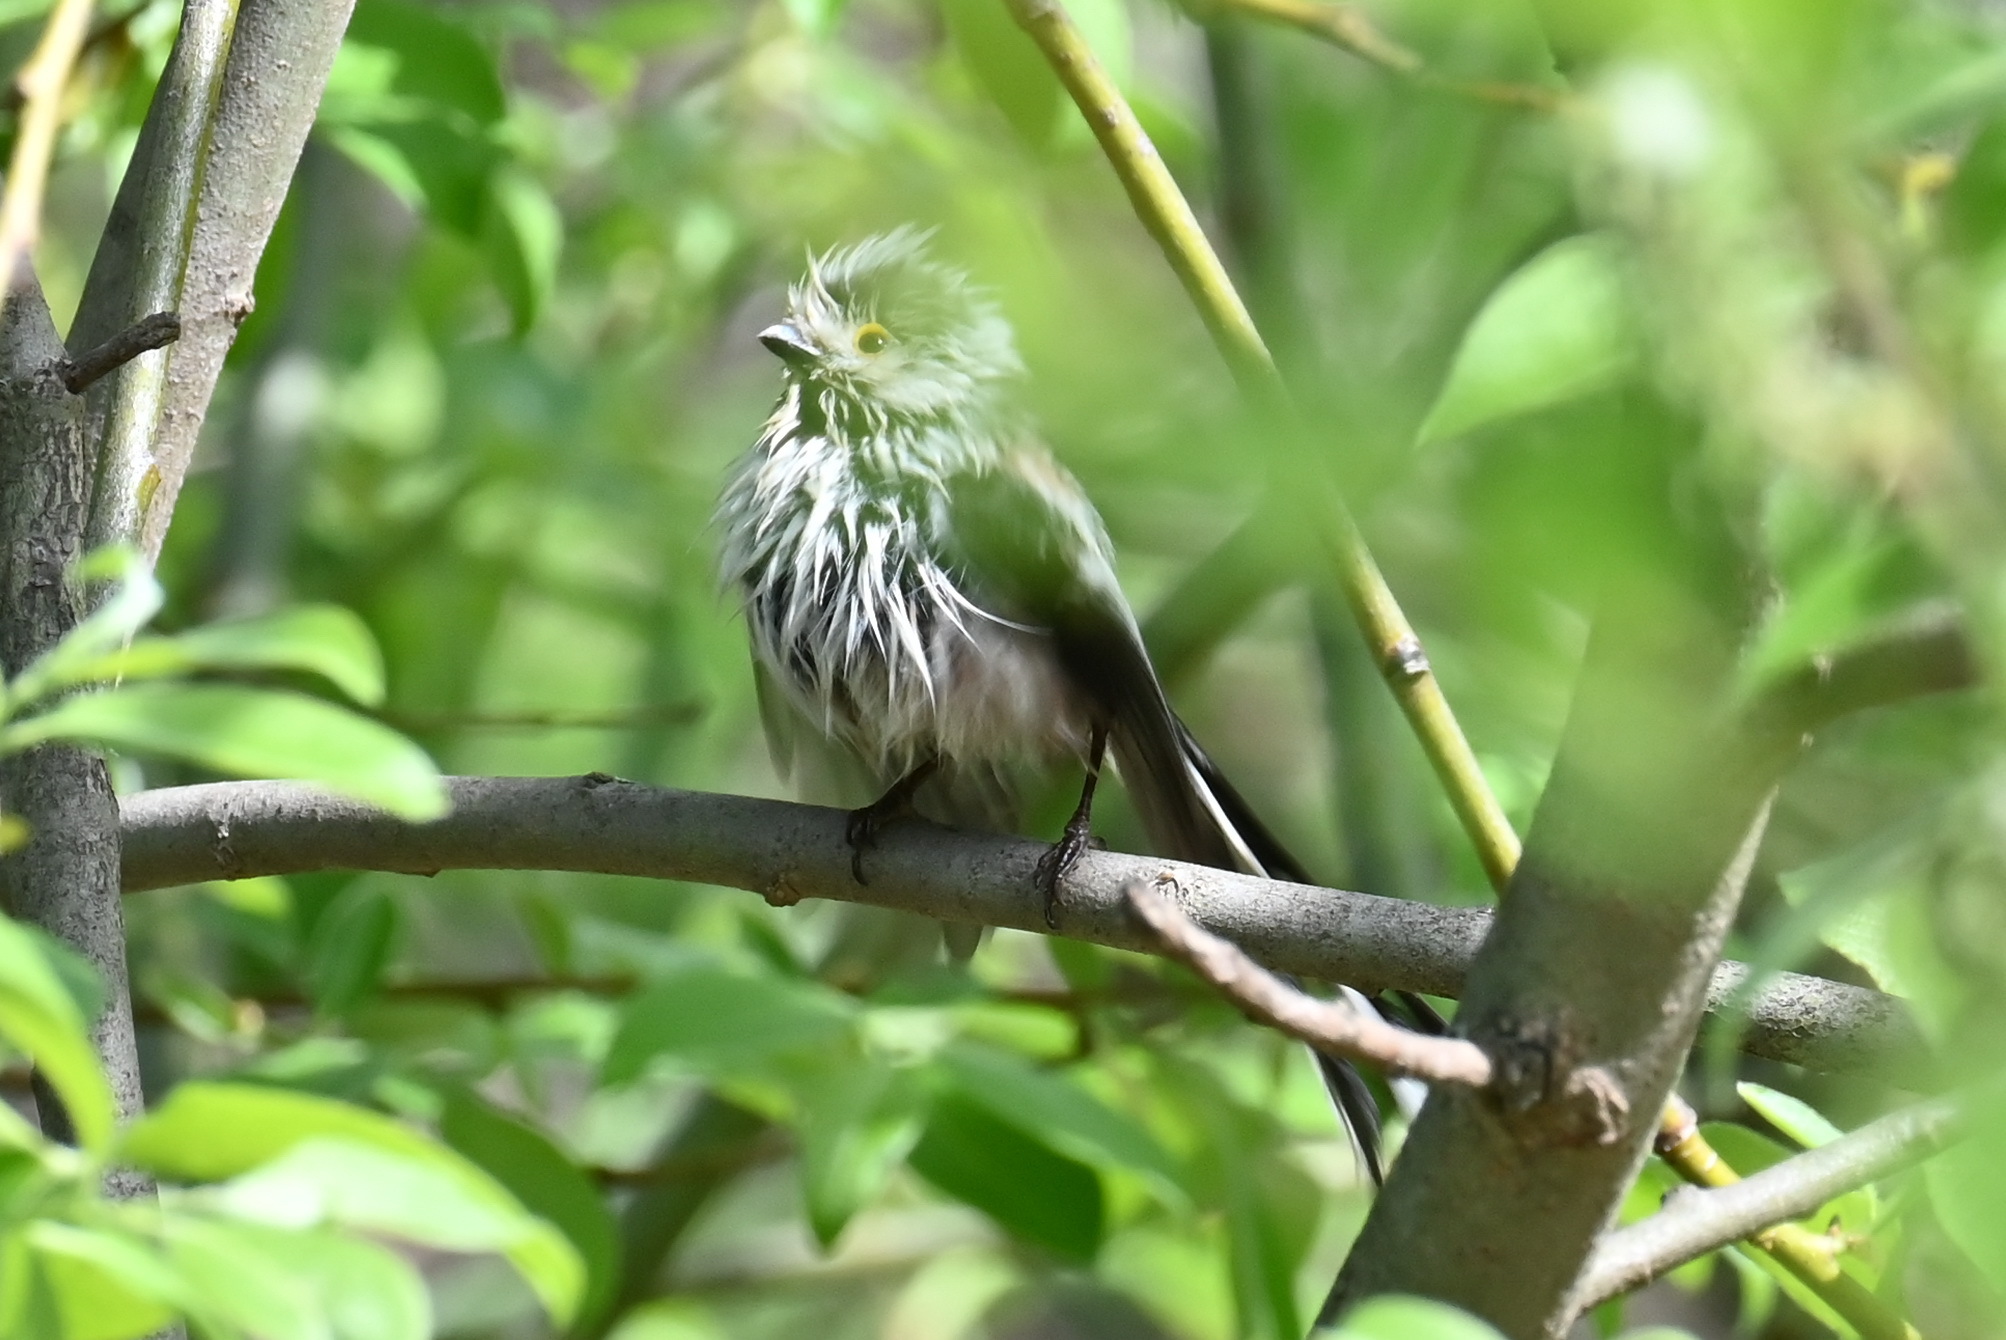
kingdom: Animalia
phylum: Chordata
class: Aves
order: Passeriformes
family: Aegithalidae
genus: Aegithalos
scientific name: Aegithalos caudatus
